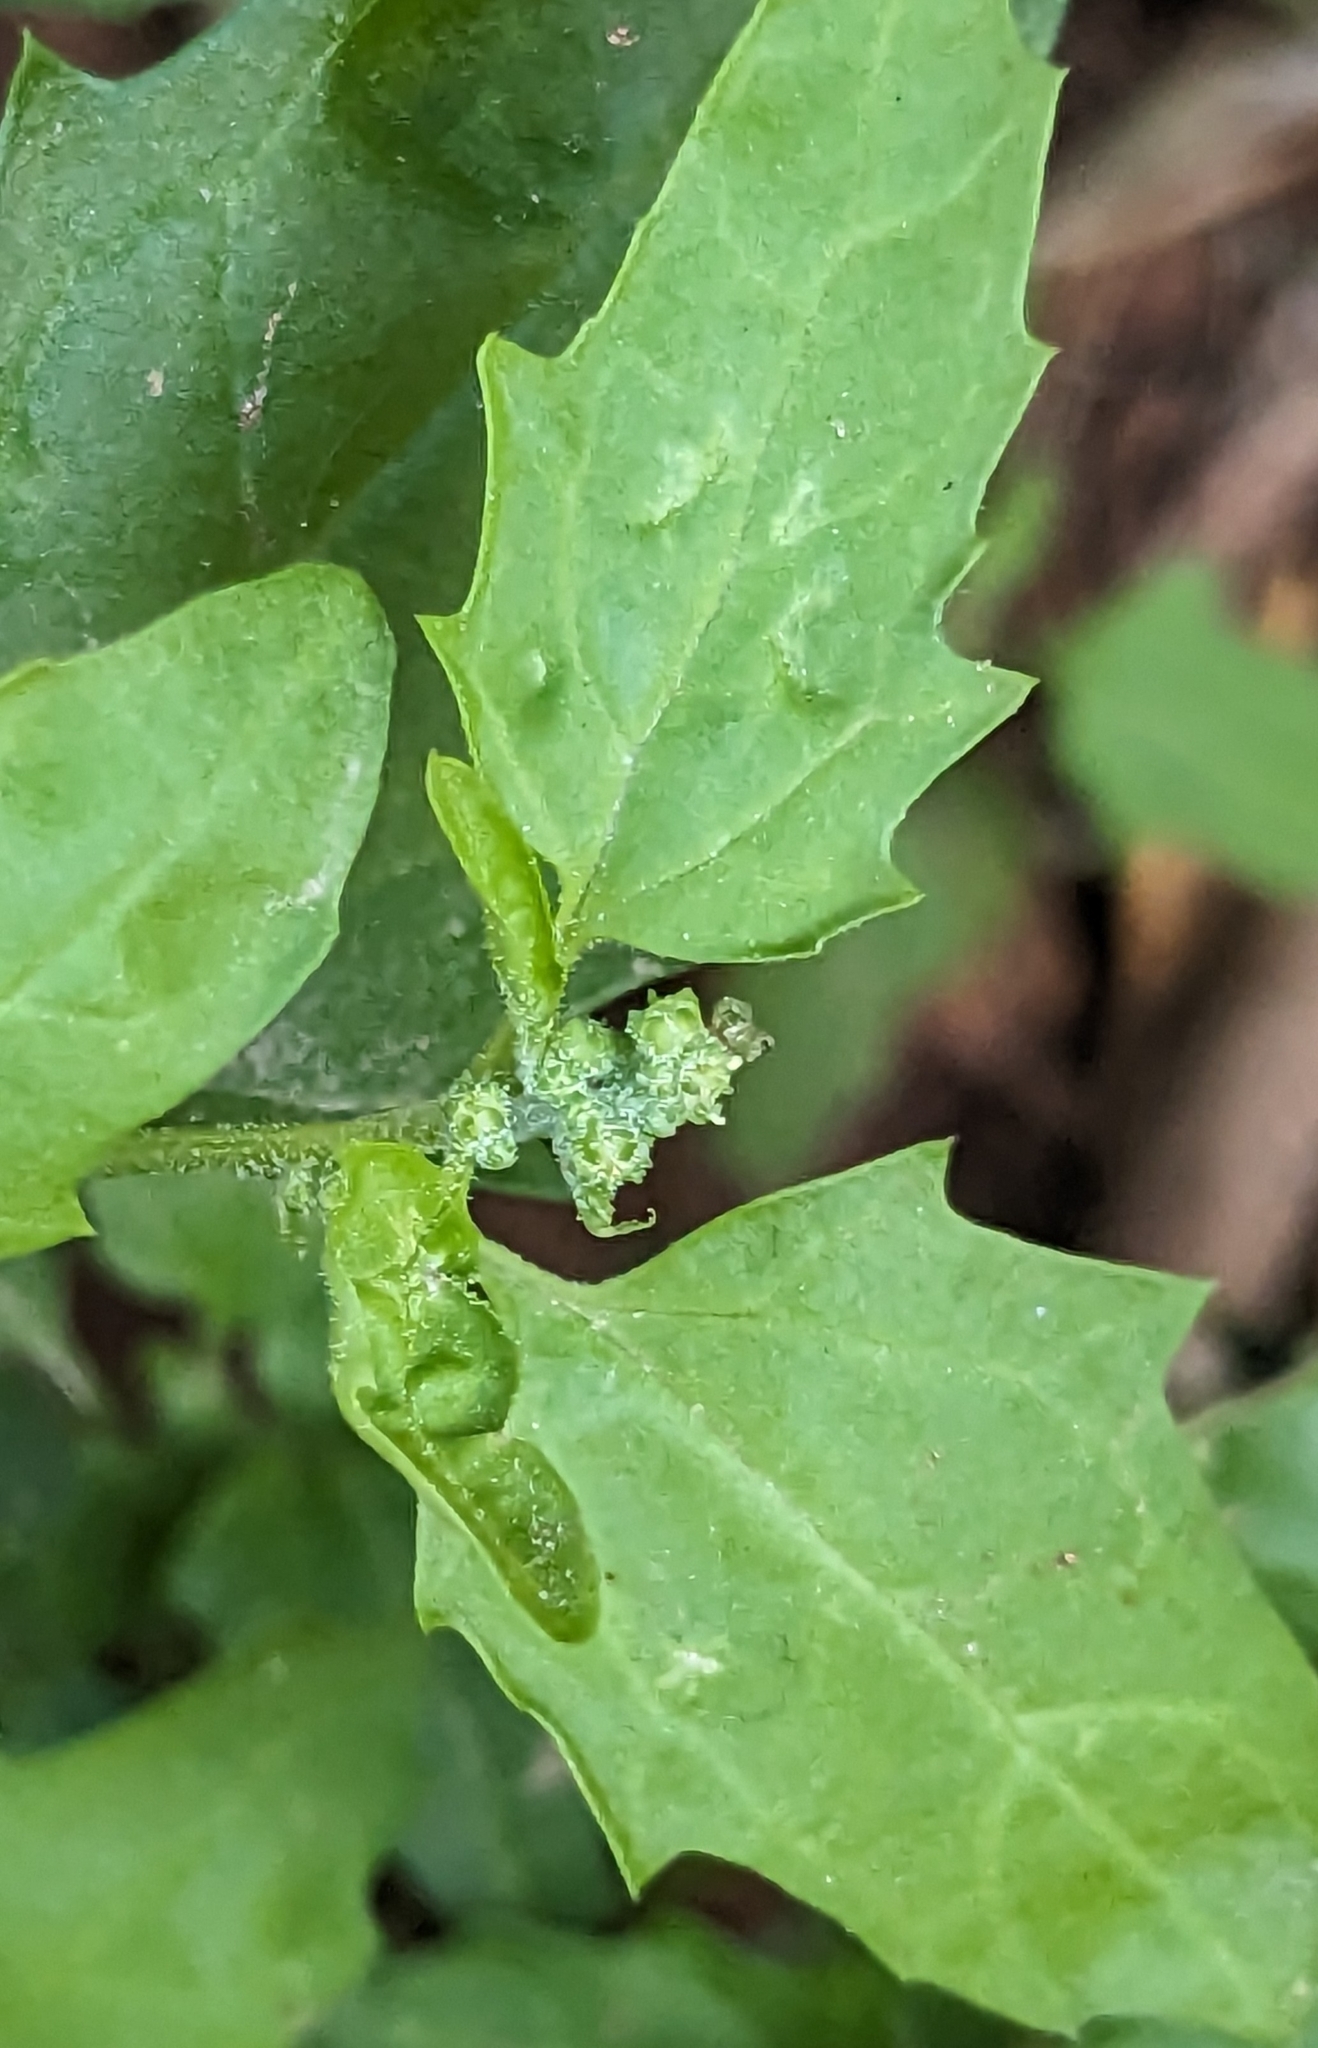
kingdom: Plantae
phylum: Tracheophyta
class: Magnoliopsida
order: Caryophyllales
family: Amaranthaceae
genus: Chenopodiastrum
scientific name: Chenopodiastrum murale
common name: Sowbane
